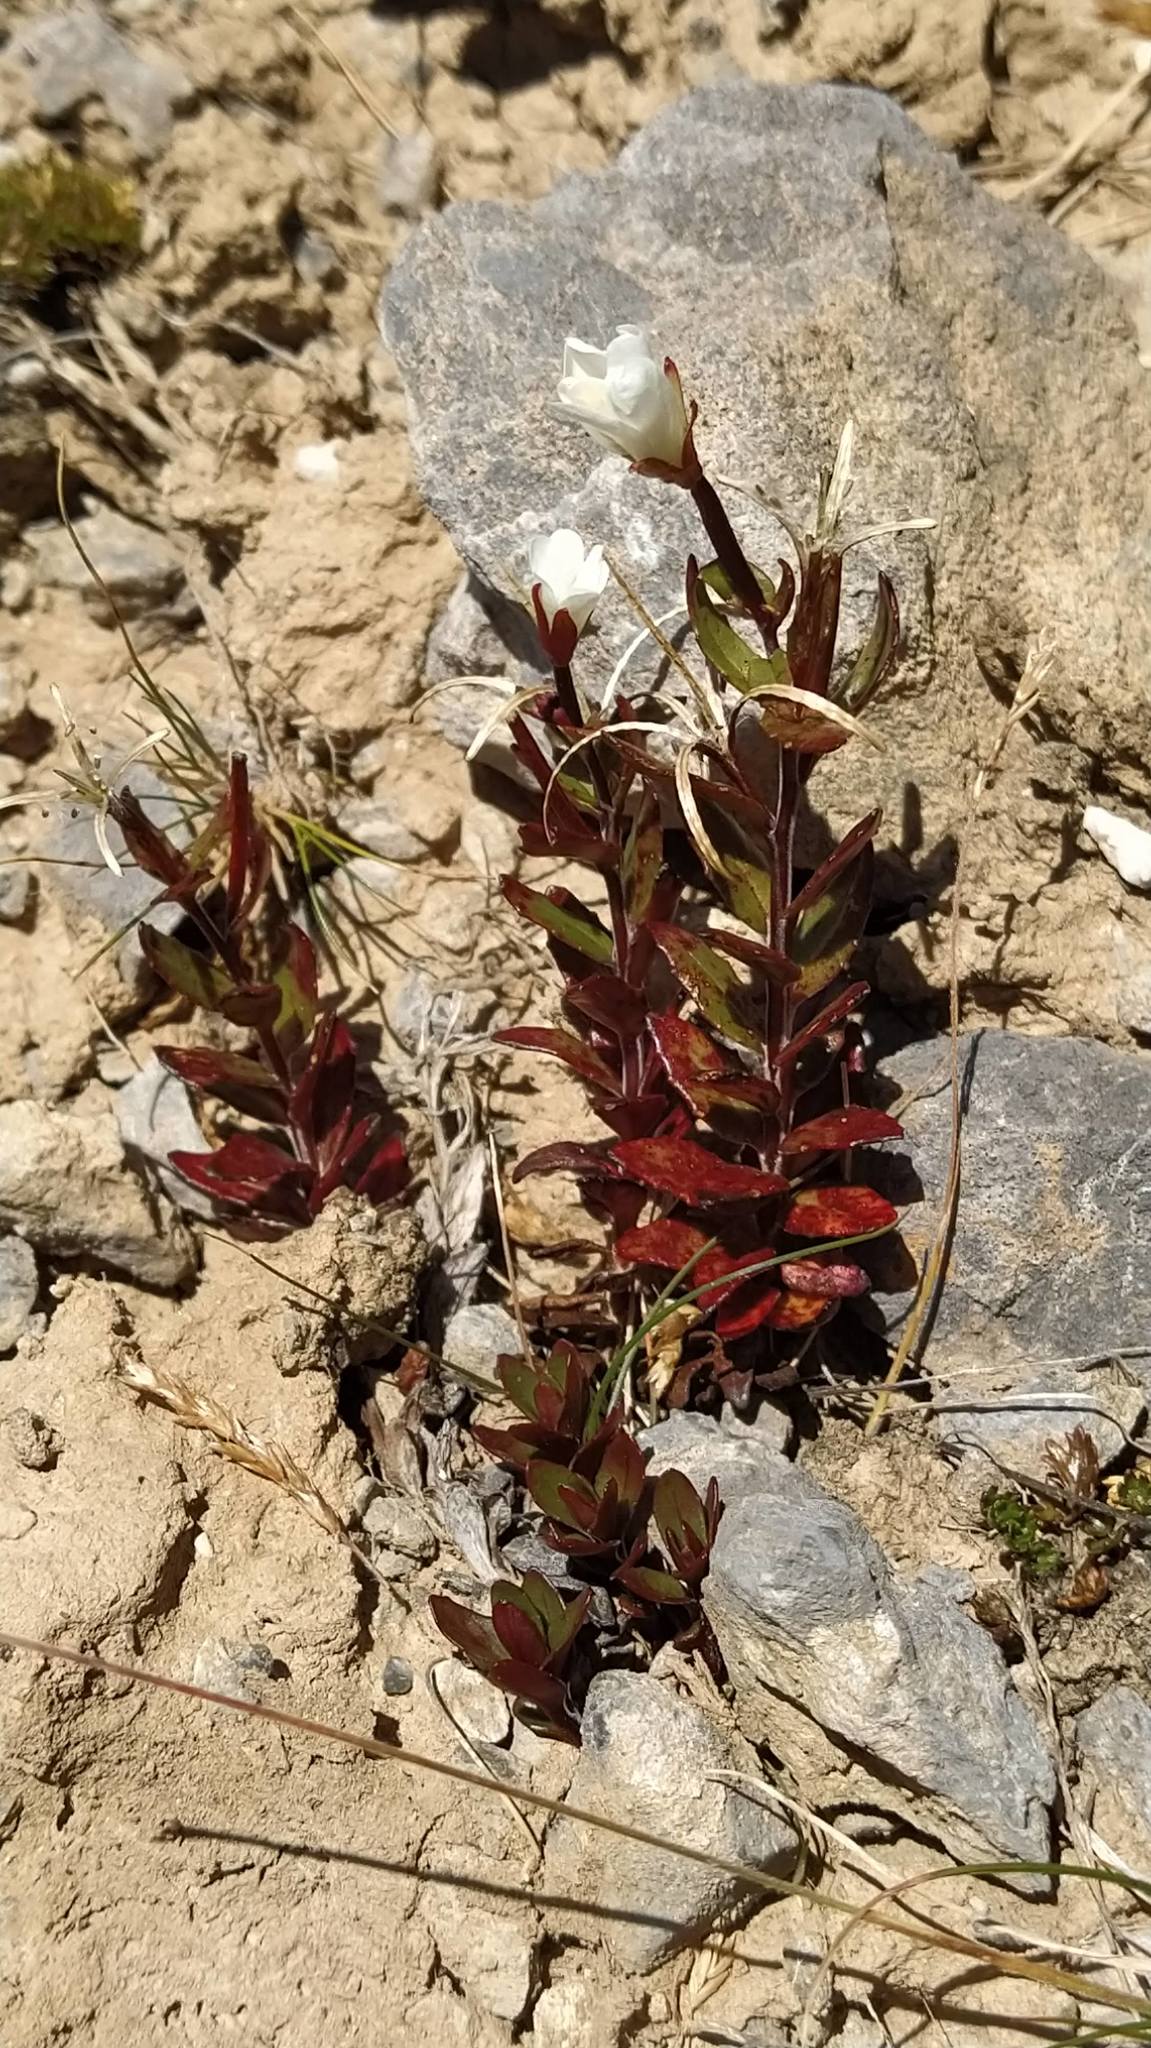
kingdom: Plantae
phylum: Tracheophyta
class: Magnoliopsida
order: Myrtales
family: Onagraceae
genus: Epilobium
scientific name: Epilobium glabellum
